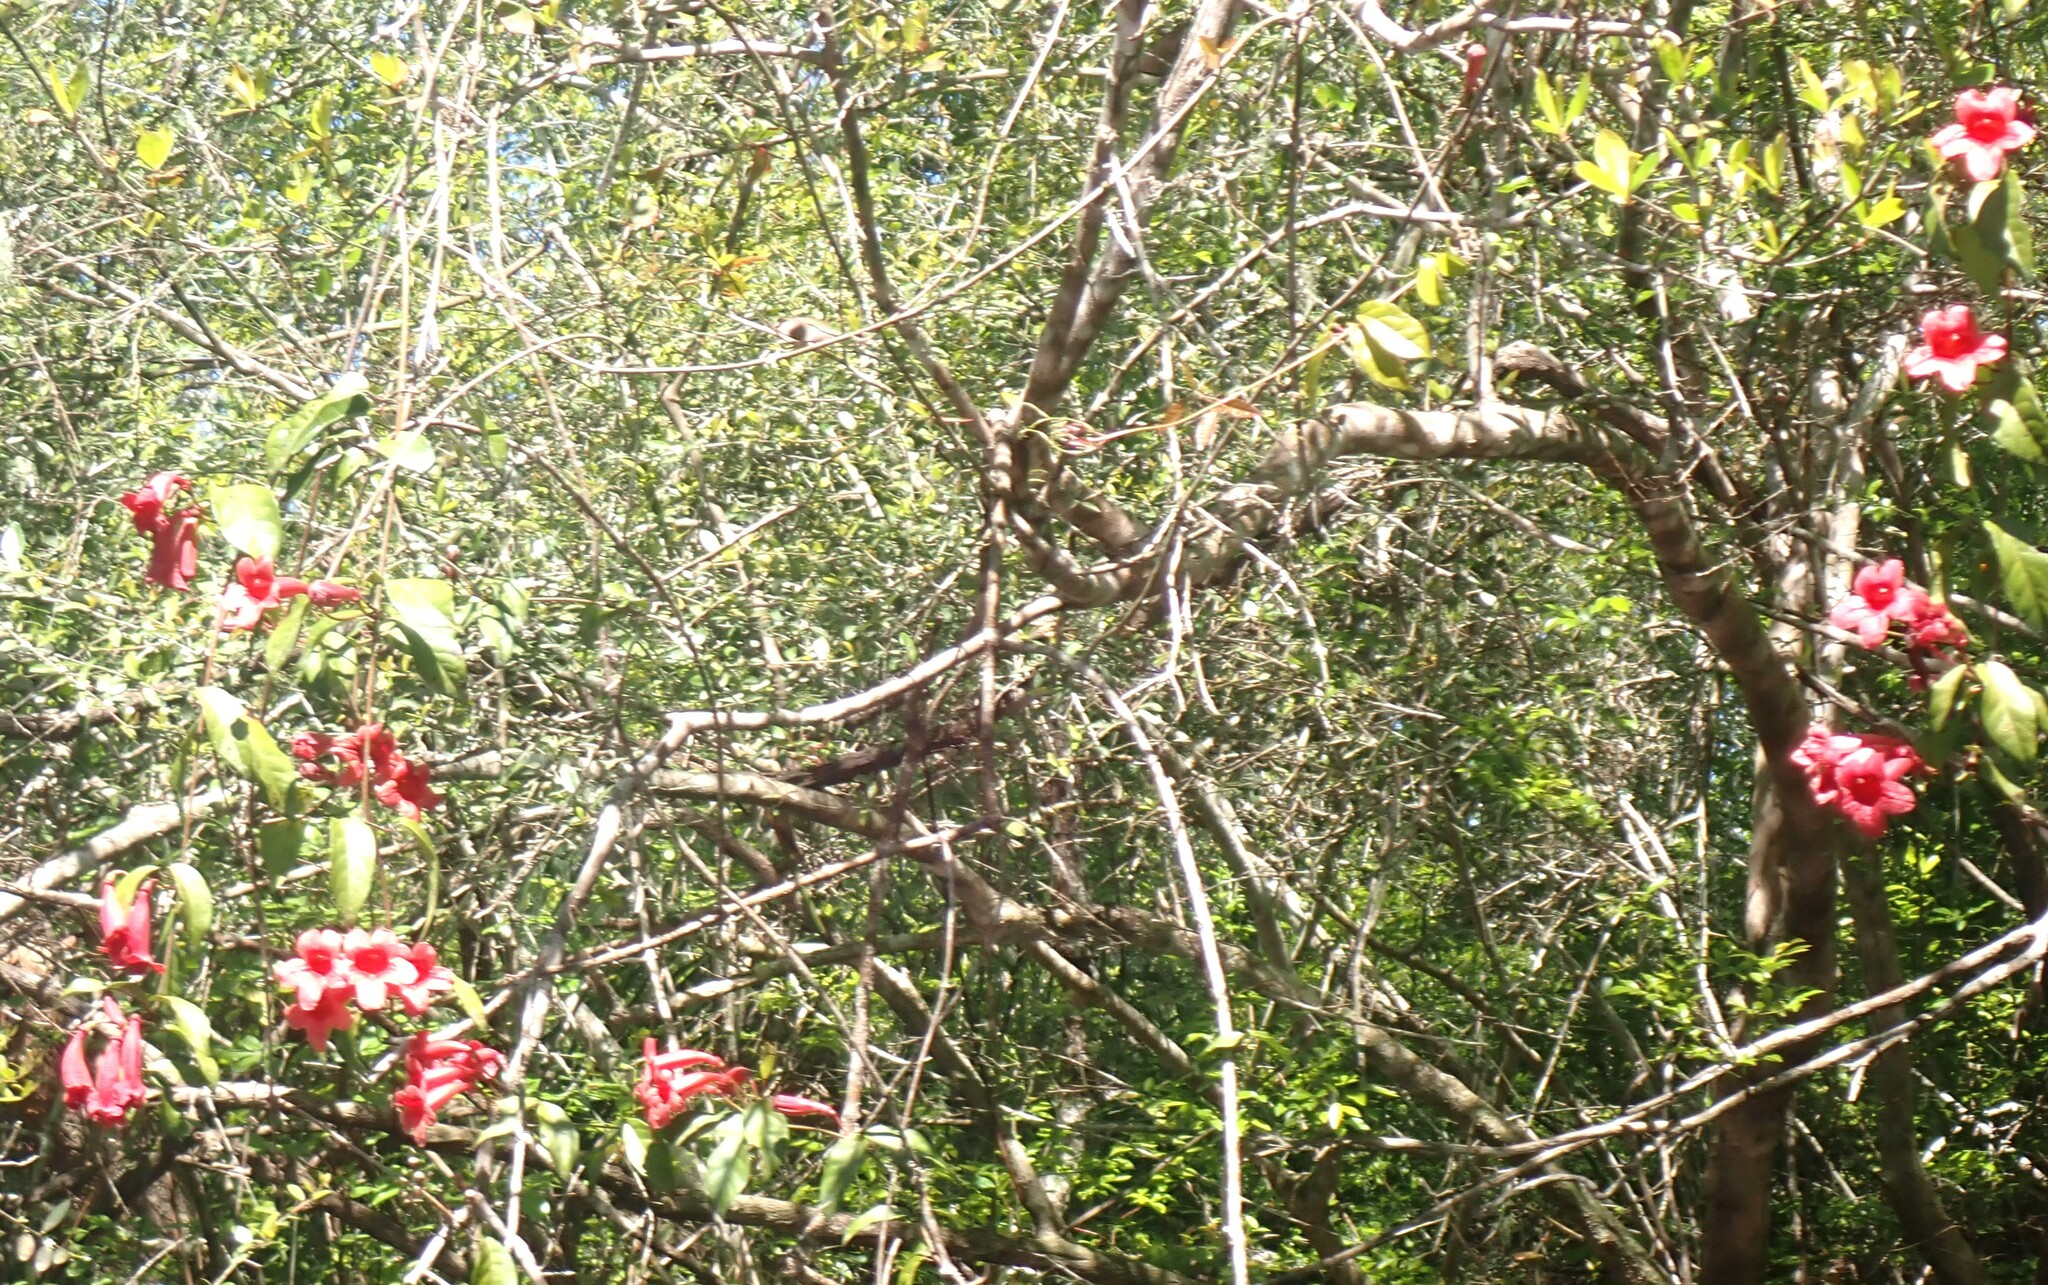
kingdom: Plantae
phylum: Tracheophyta
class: Magnoliopsida
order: Lamiales
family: Bignoniaceae
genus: Bignonia
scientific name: Bignonia capreolata
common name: Crossvine
